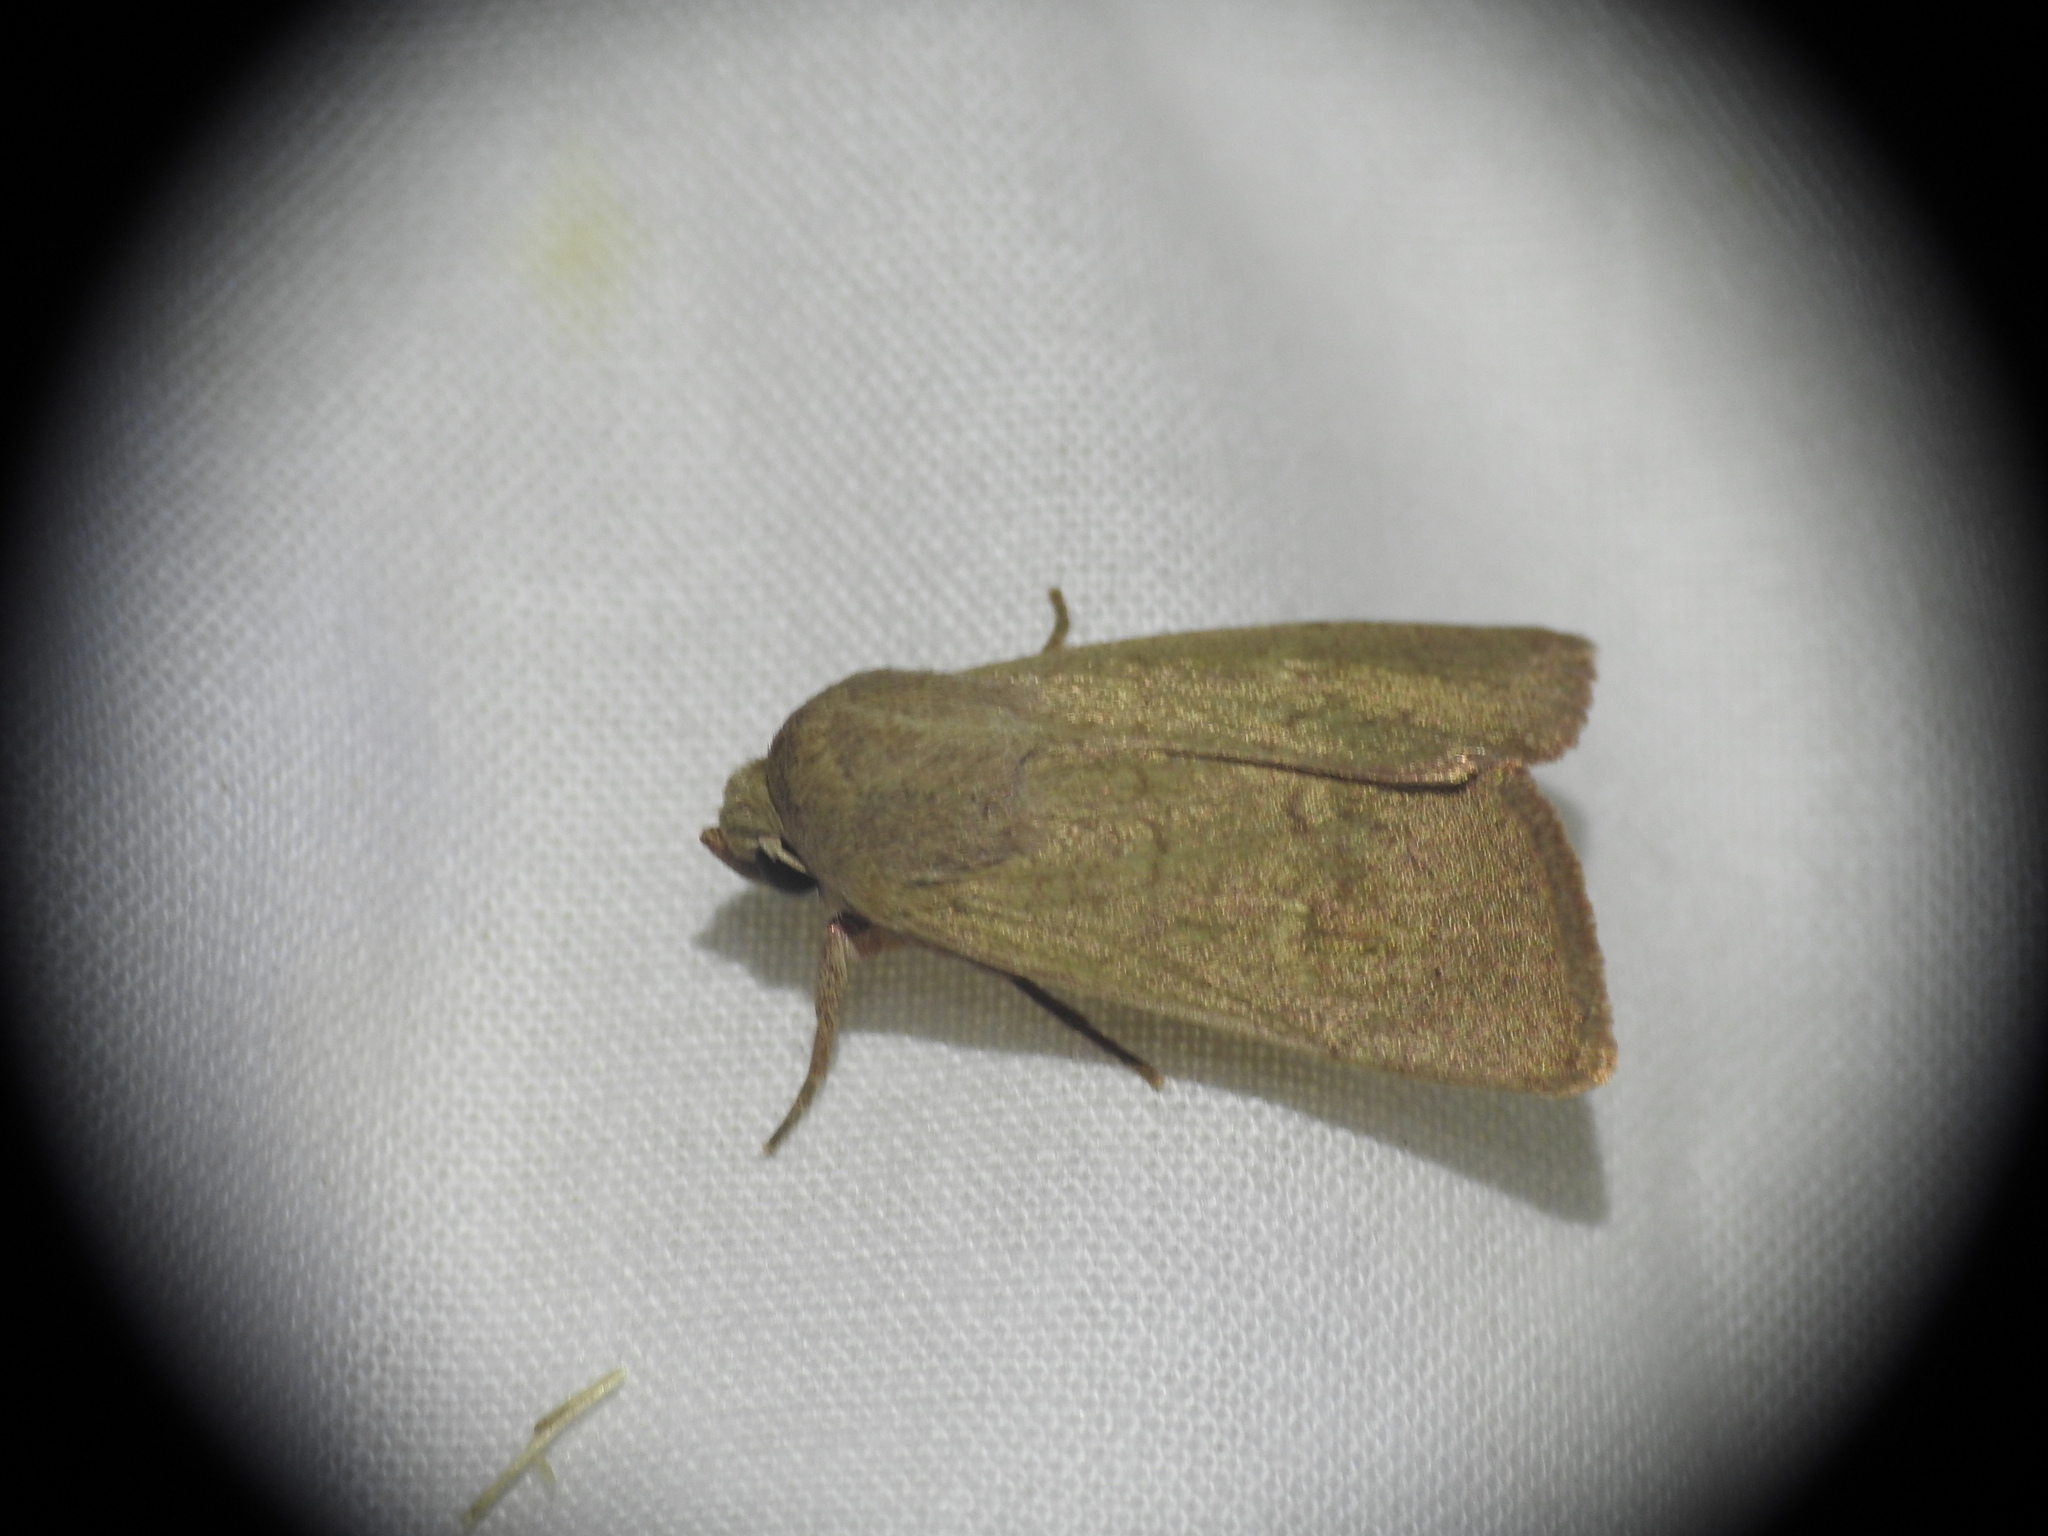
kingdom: Animalia
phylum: Arthropoda
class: Insecta
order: Lepidoptera
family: Noctuidae
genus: Mythimna
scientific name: Mythimna ferrago
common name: Clay
